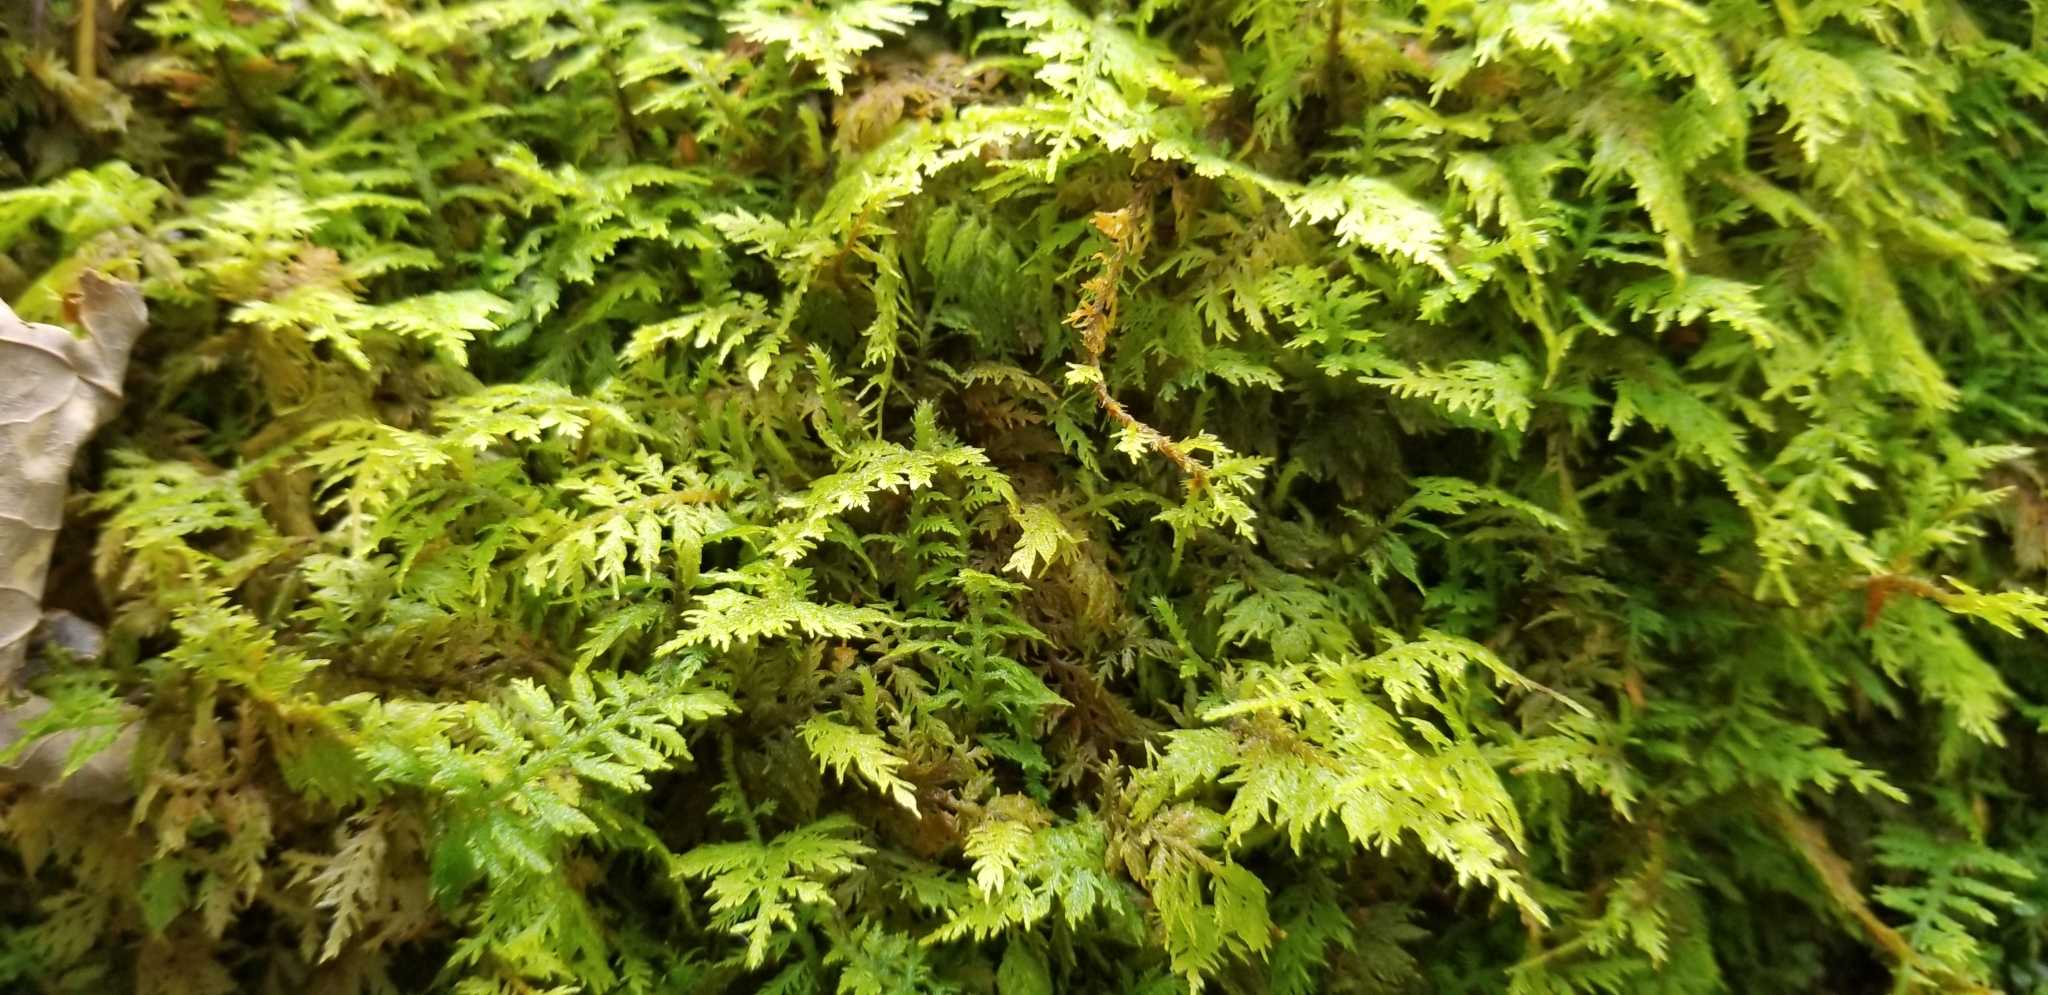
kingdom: Plantae
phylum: Bryophyta
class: Bryopsida
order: Hypnales
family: Thuidiaceae
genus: Thuidium
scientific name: Thuidium delicatulum
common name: Delicate fern moss
